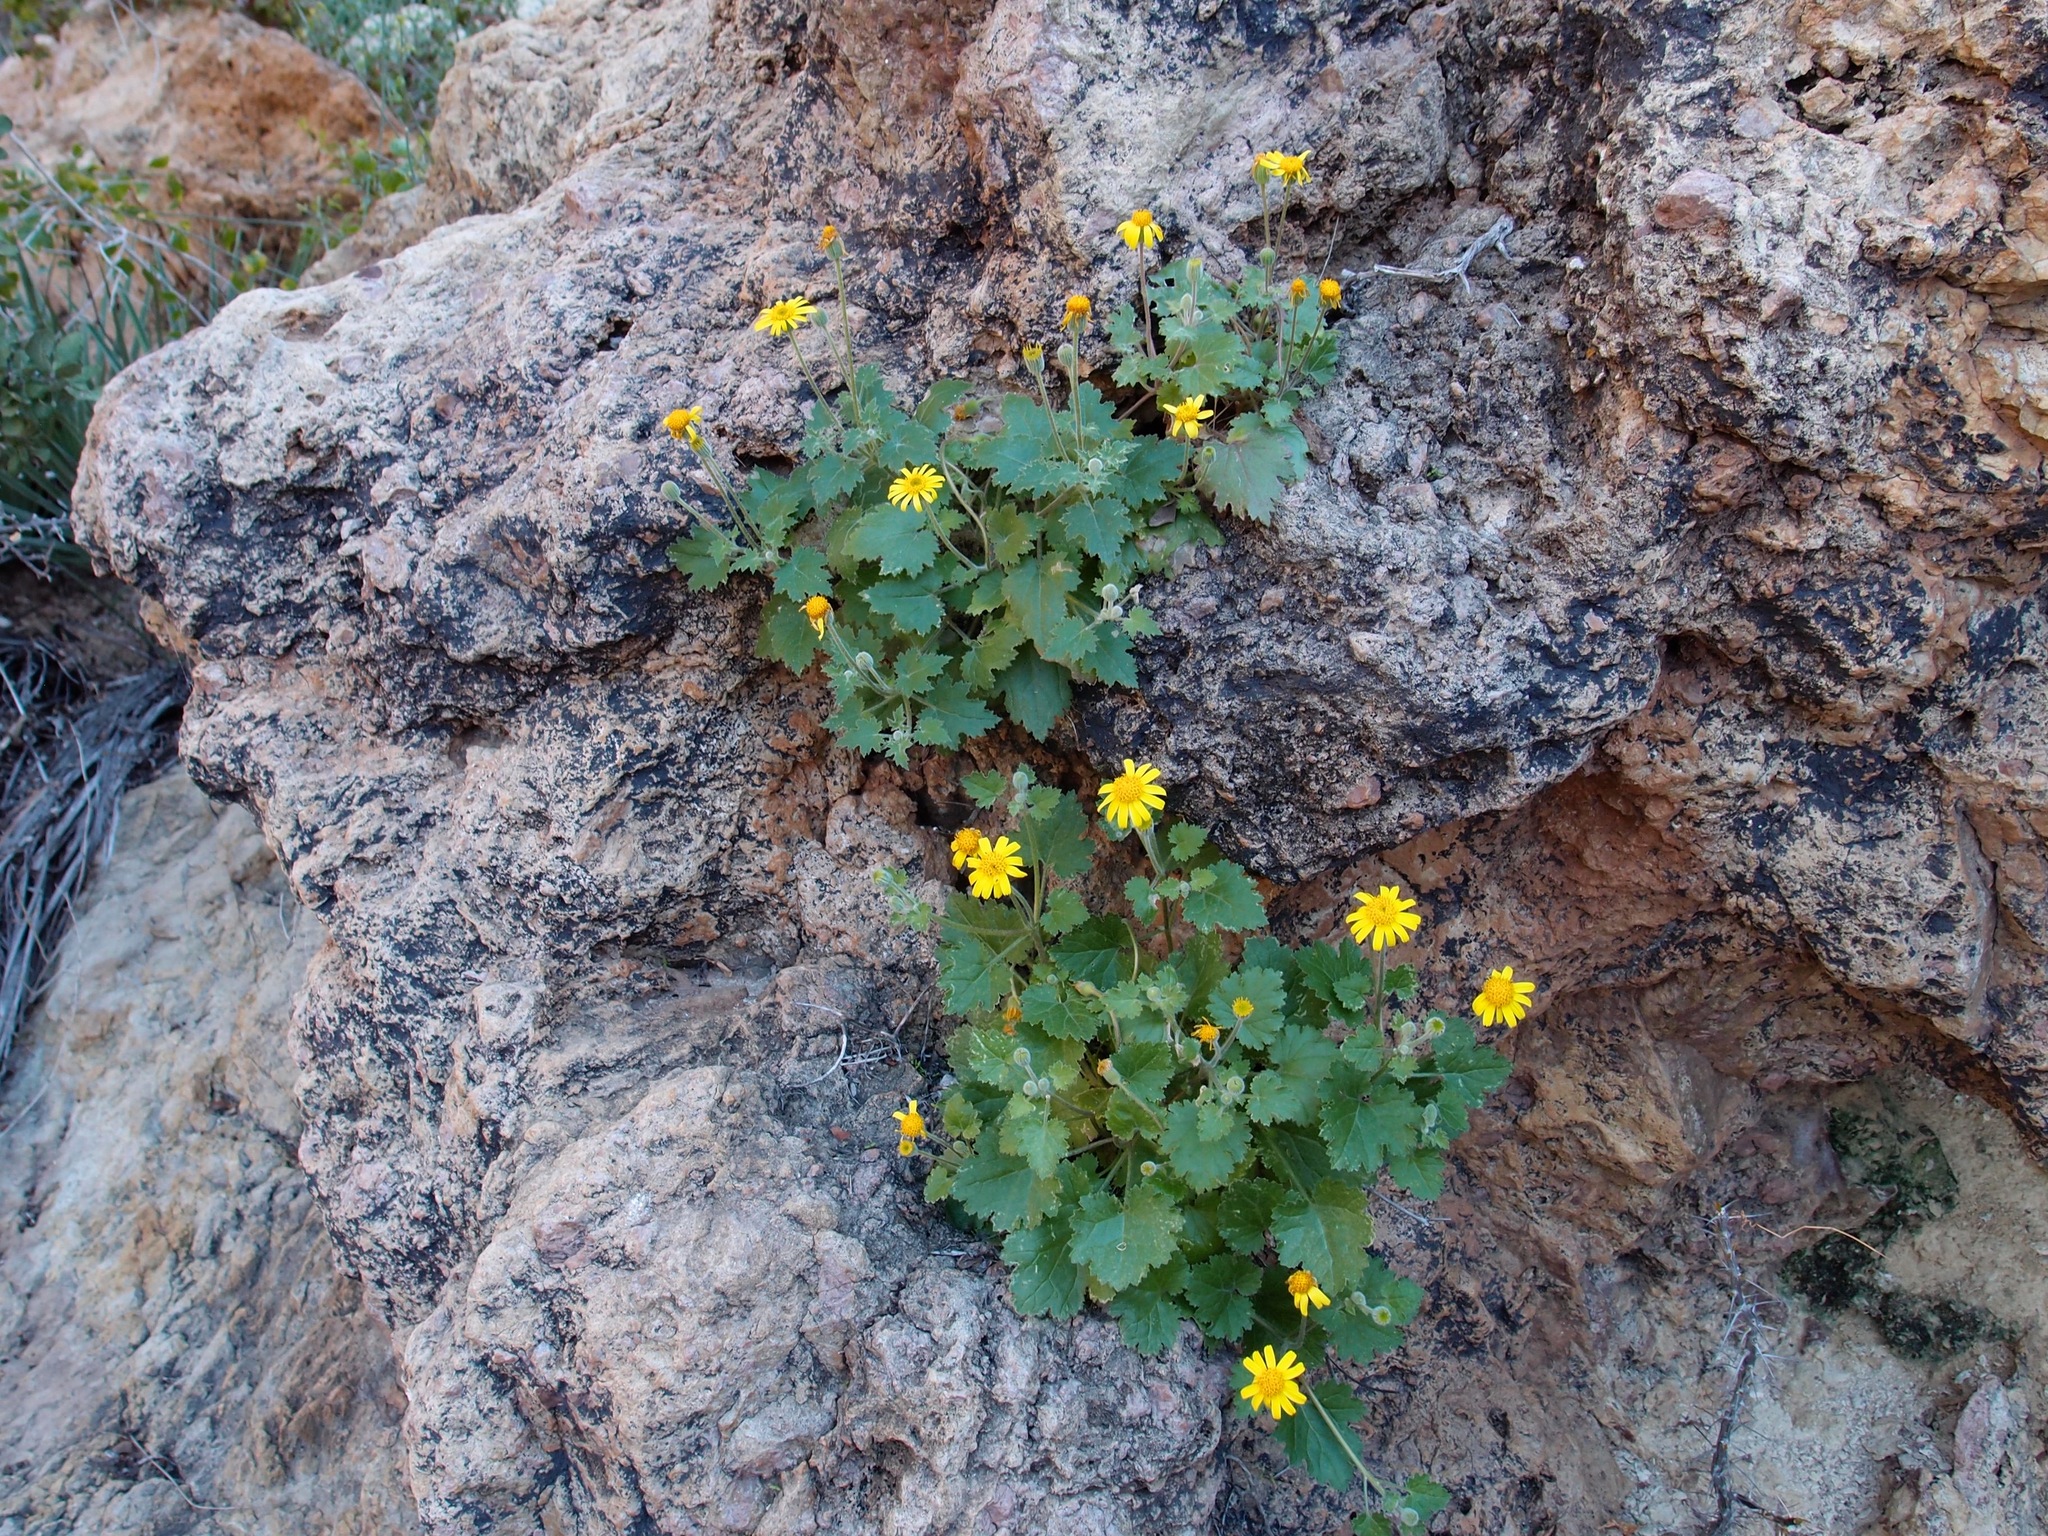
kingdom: Plantae
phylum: Tracheophyta
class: Magnoliopsida
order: Asterales
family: Asteraceae
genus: Laphamia
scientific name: Laphamia sanchezii
